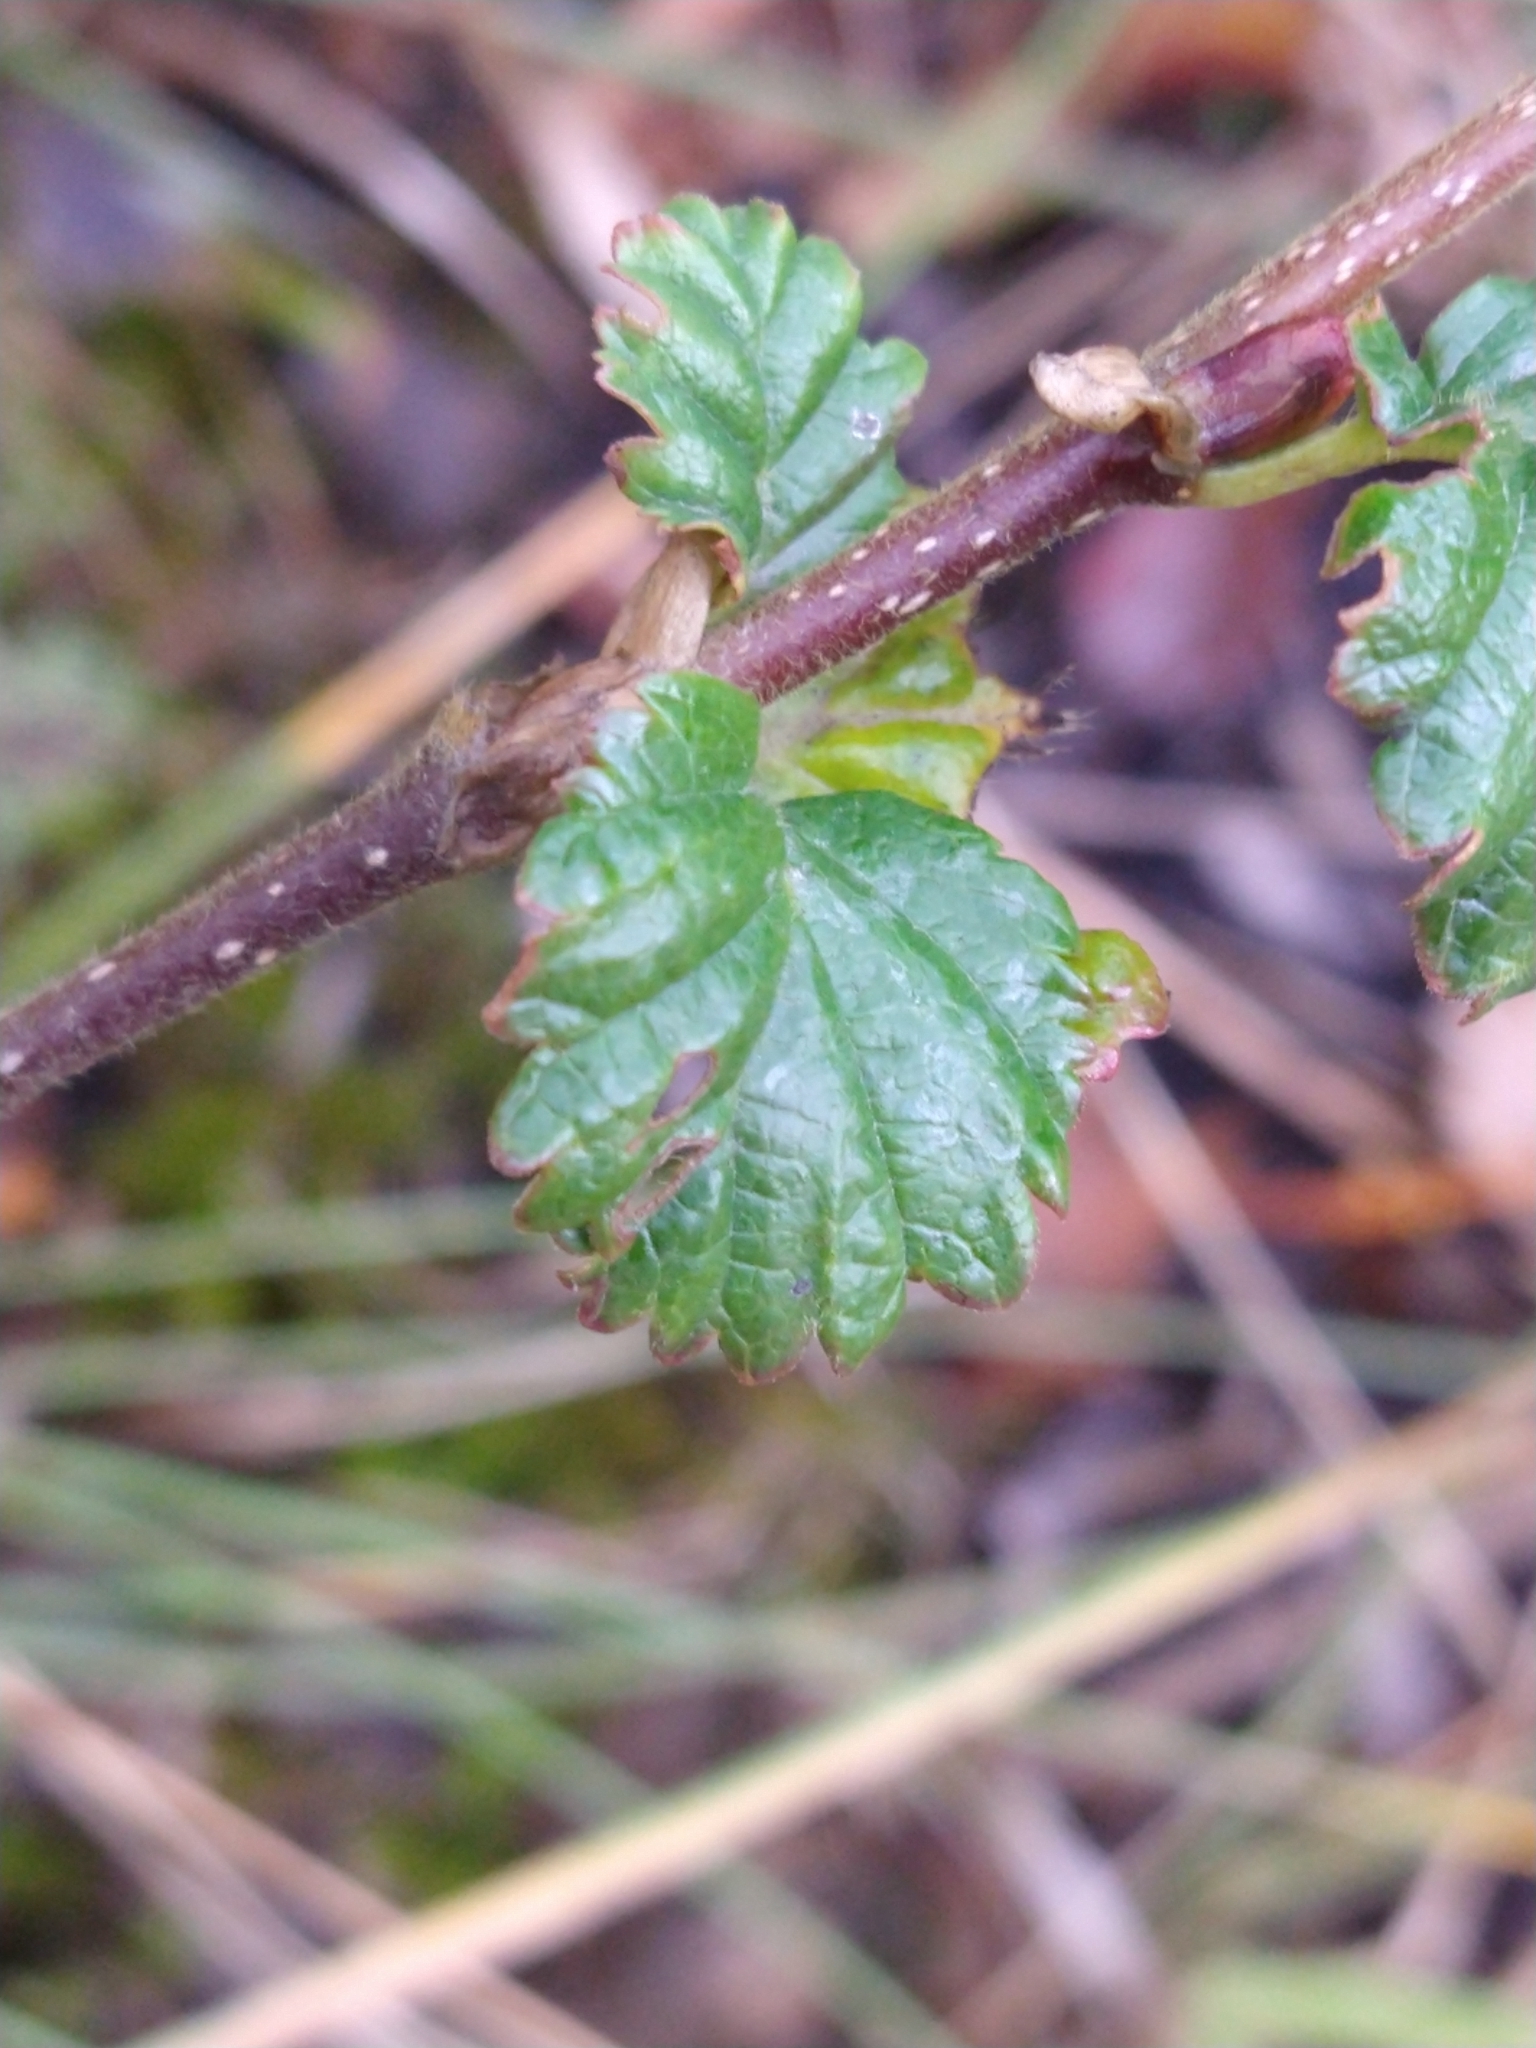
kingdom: Plantae
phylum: Tracheophyta
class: Magnoliopsida
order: Fagales
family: Nothofagaceae
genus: Nothofagus
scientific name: Nothofagus pumilio
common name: Lenga beech
